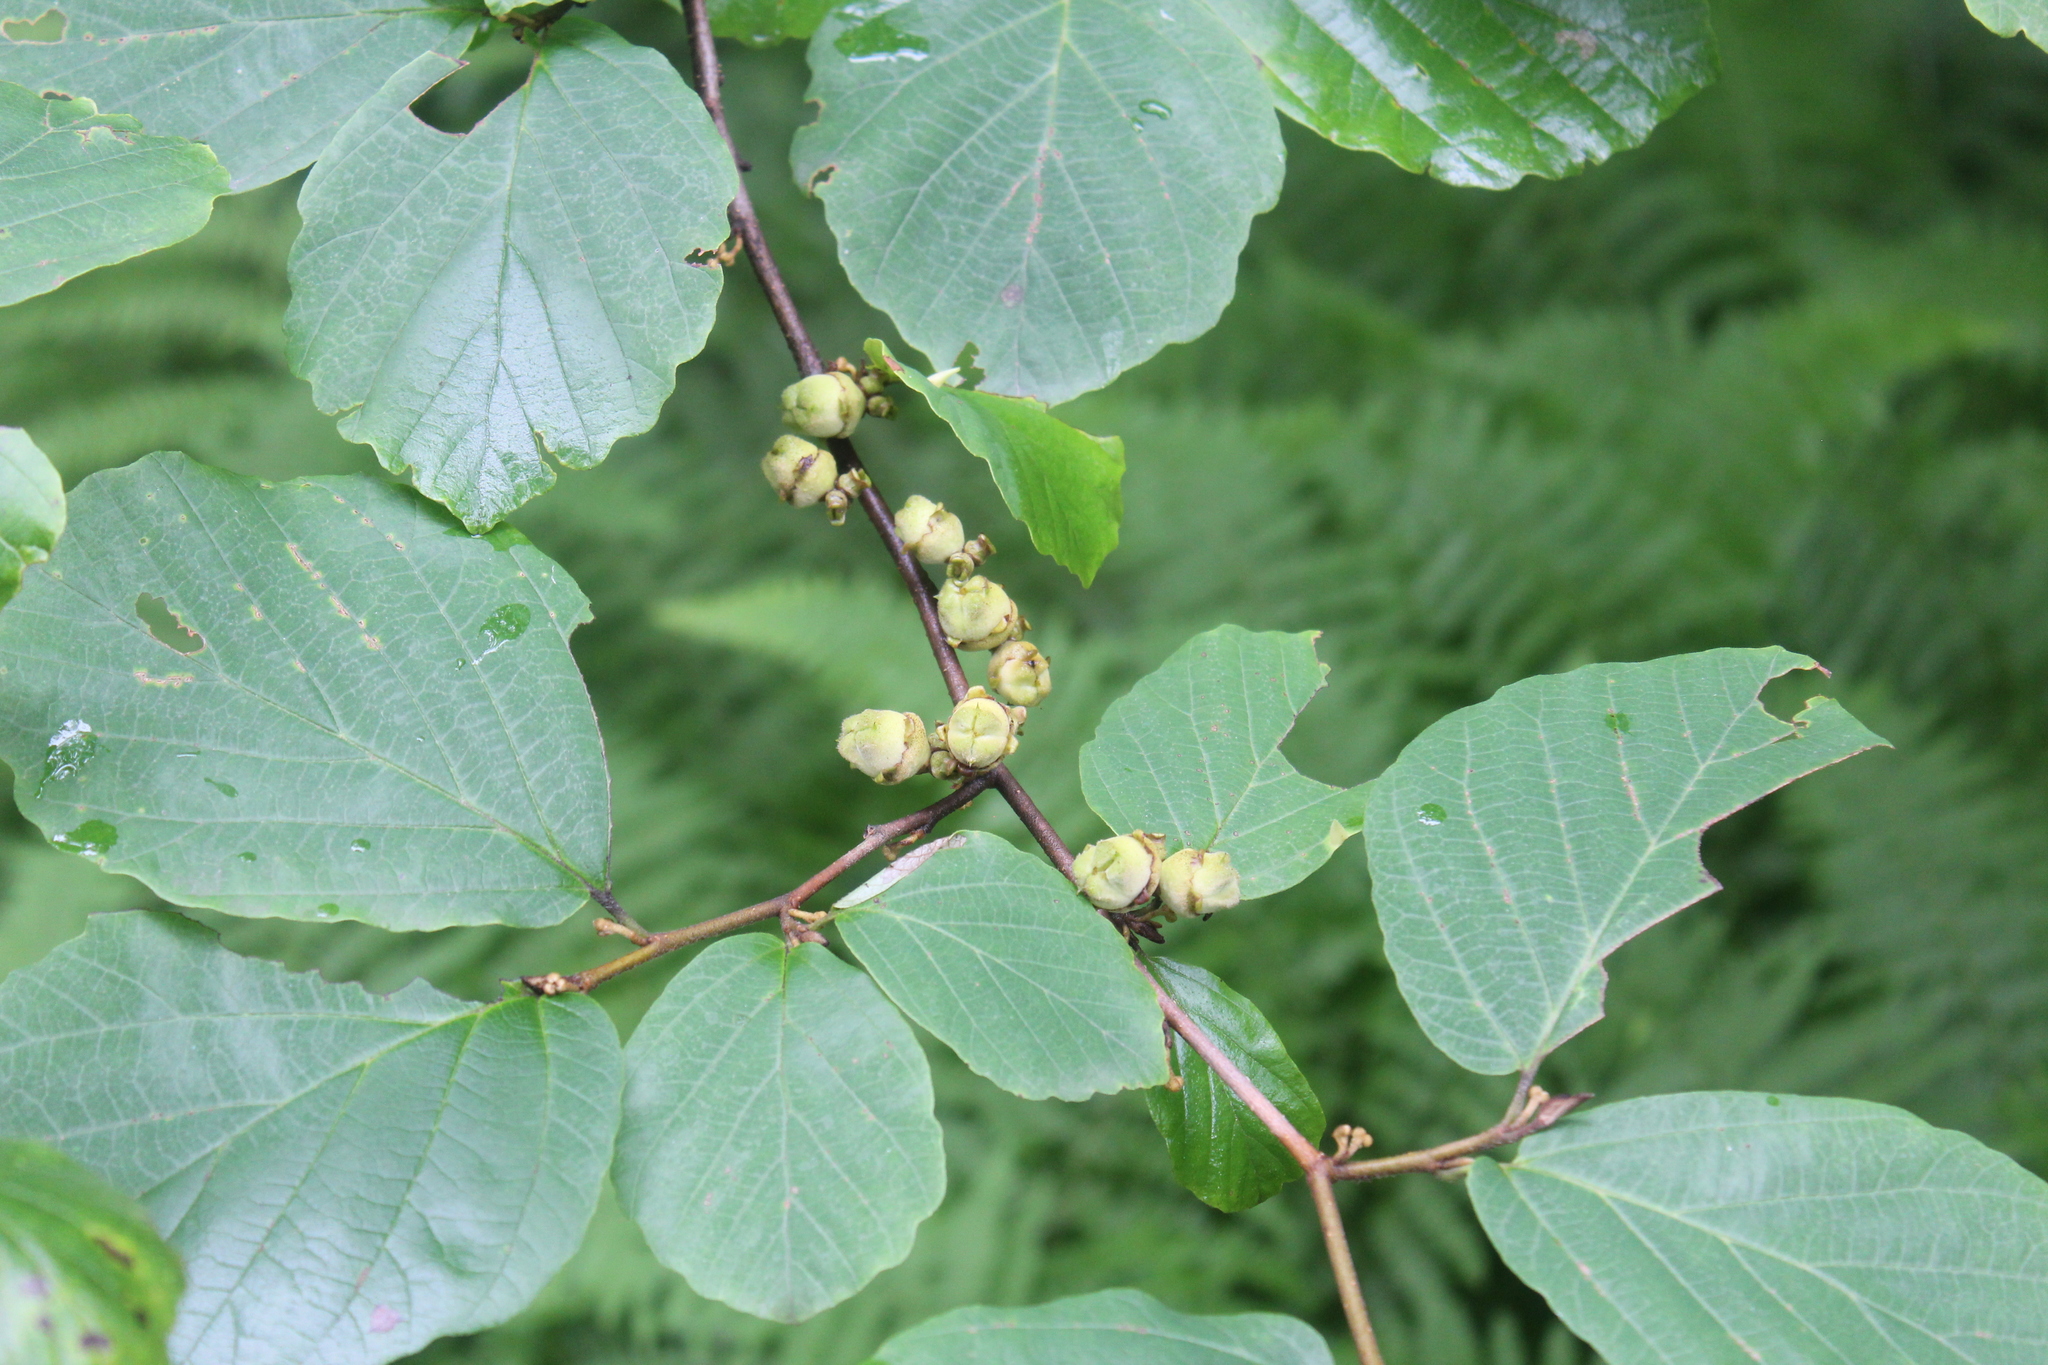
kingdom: Plantae
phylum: Tracheophyta
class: Magnoliopsida
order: Saxifragales
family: Hamamelidaceae
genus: Hamamelis
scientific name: Hamamelis virginiana
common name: Witch-hazel
